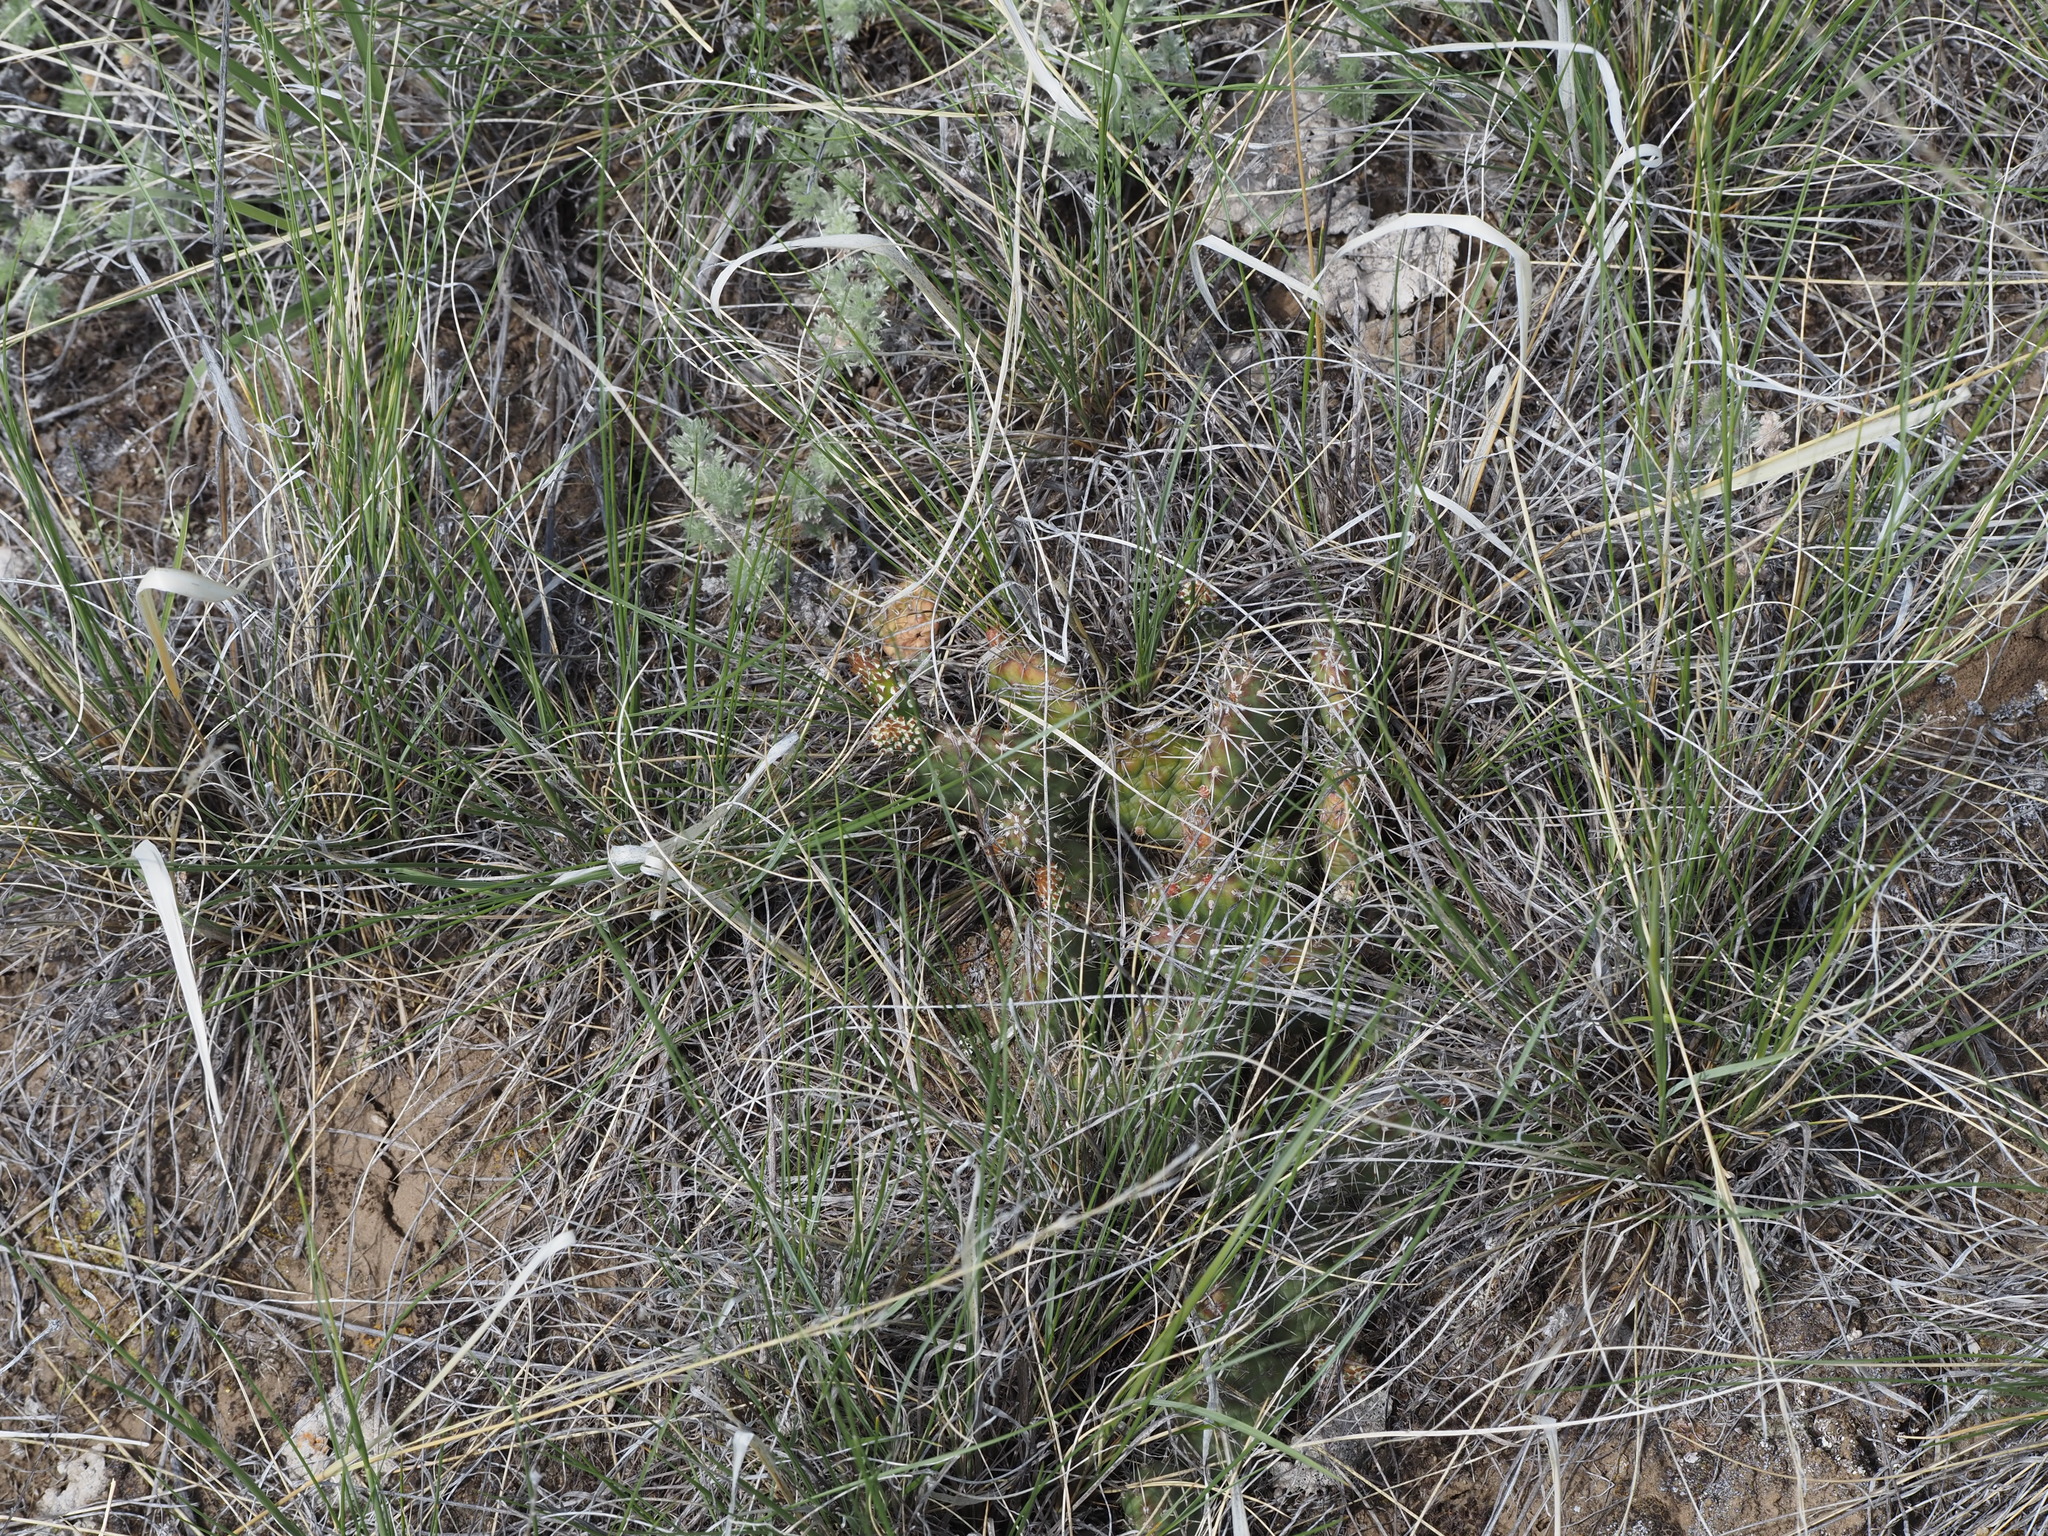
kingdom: Plantae
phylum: Tracheophyta
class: Magnoliopsida
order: Caryophyllales
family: Cactaceae
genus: Opuntia
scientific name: Opuntia fragilis
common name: Brittle cactus
